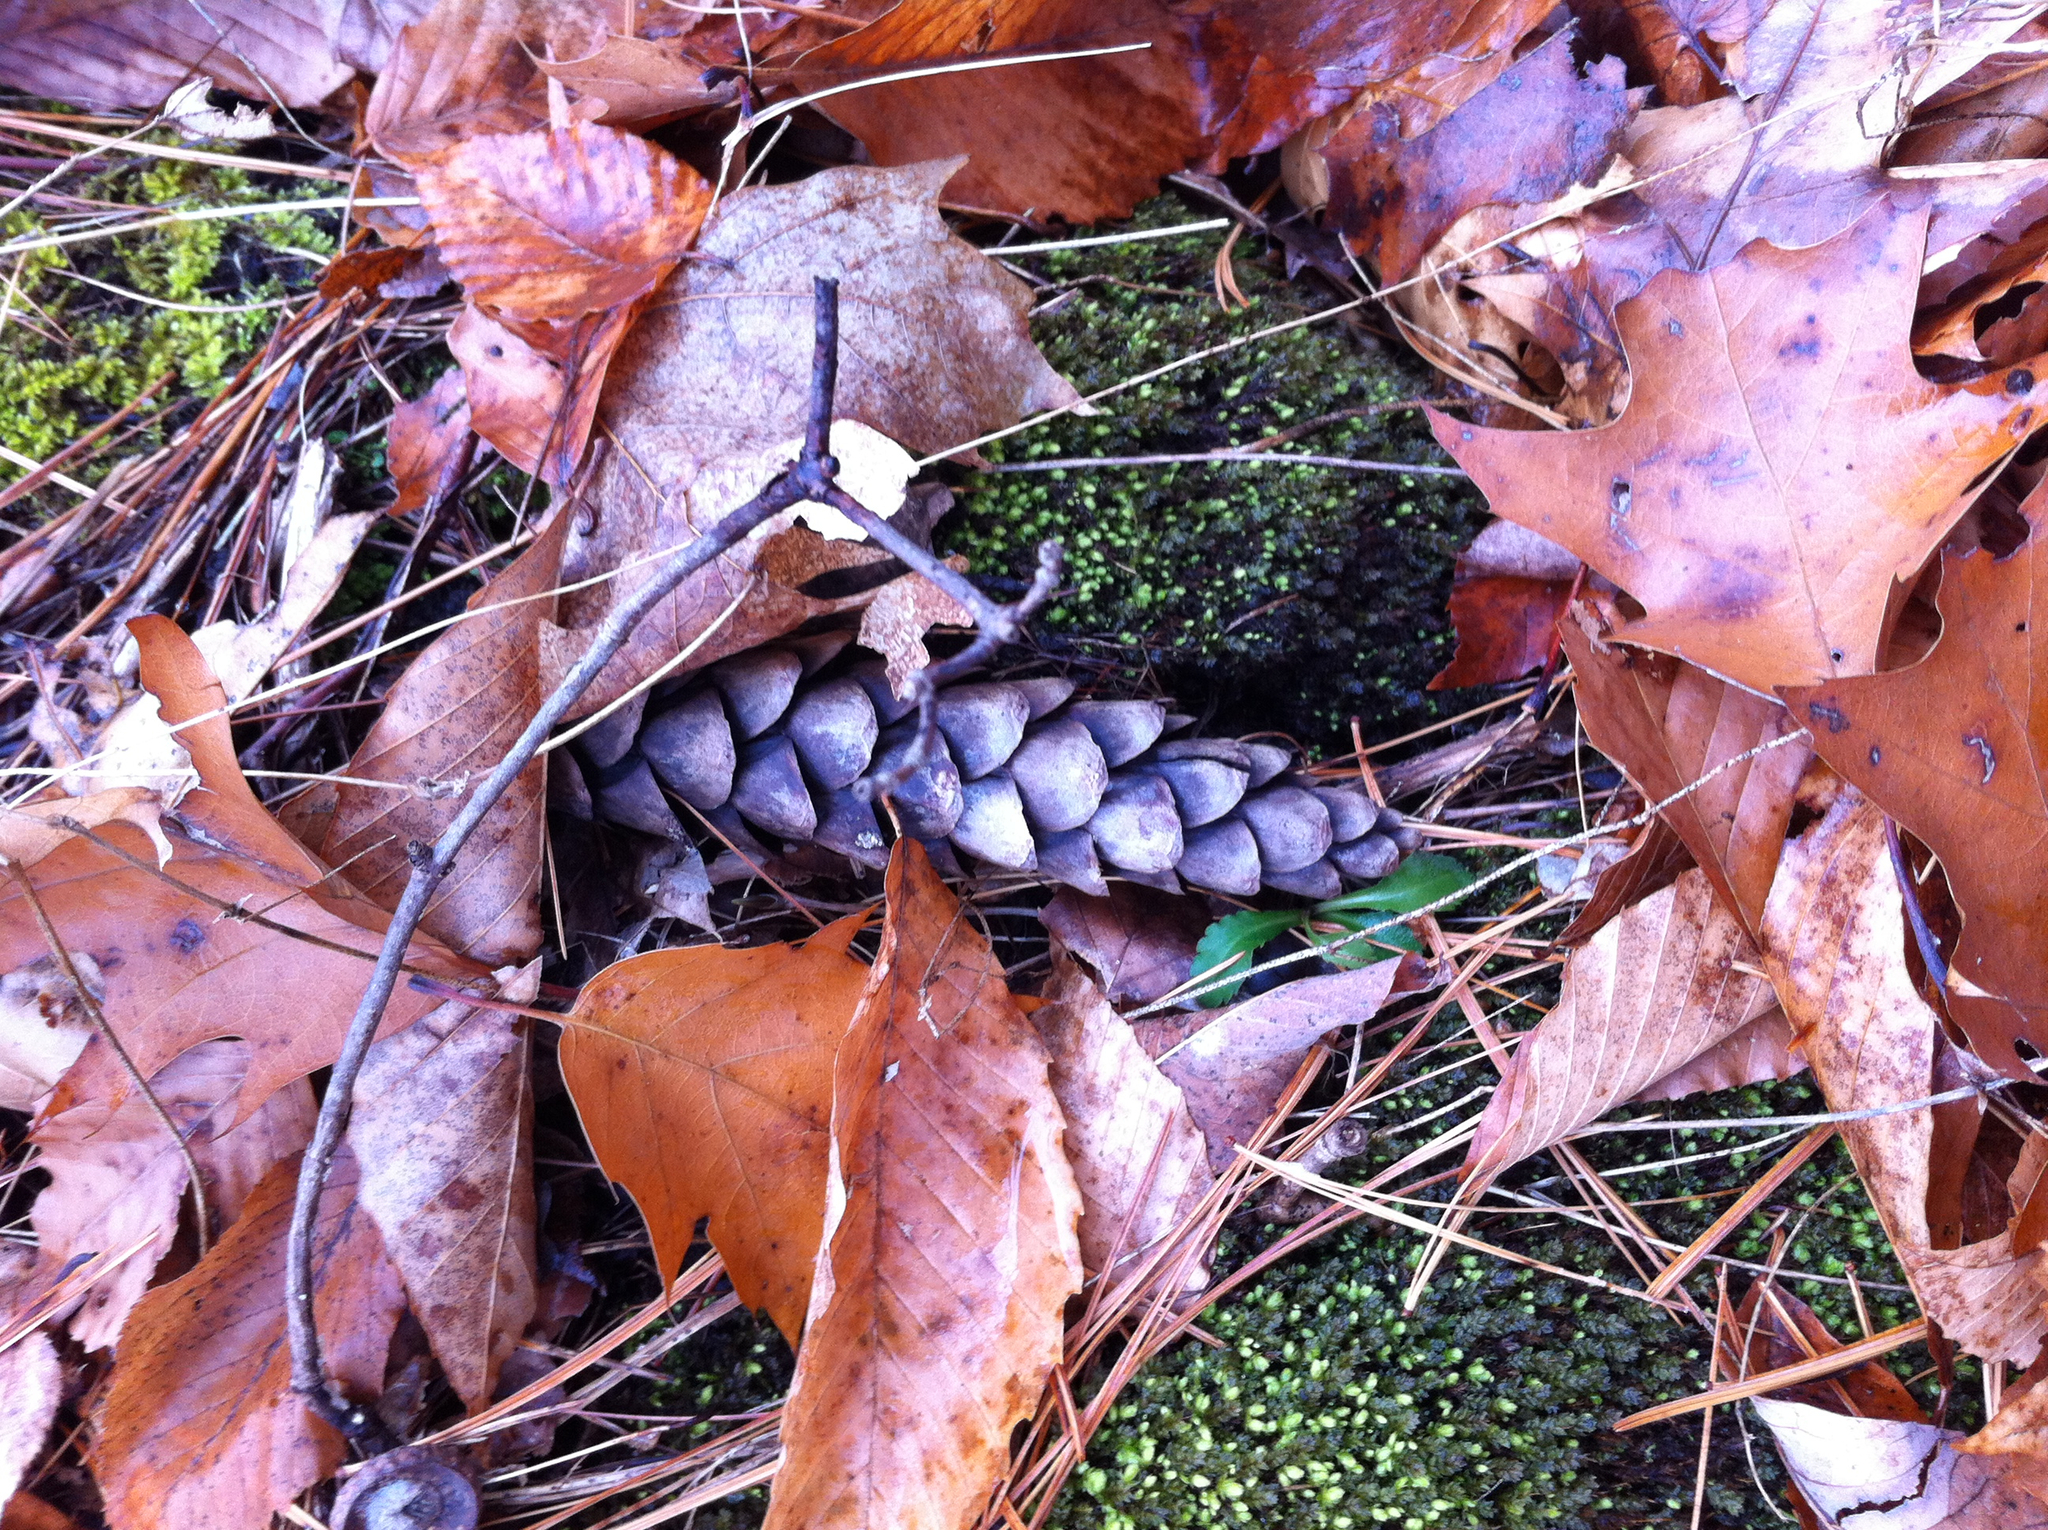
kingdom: Plantae
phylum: Tracheophyta
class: Pinopsida
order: Pinales
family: Pinaceae
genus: Pinus
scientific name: Pinus strobus
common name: Weymouth pine
